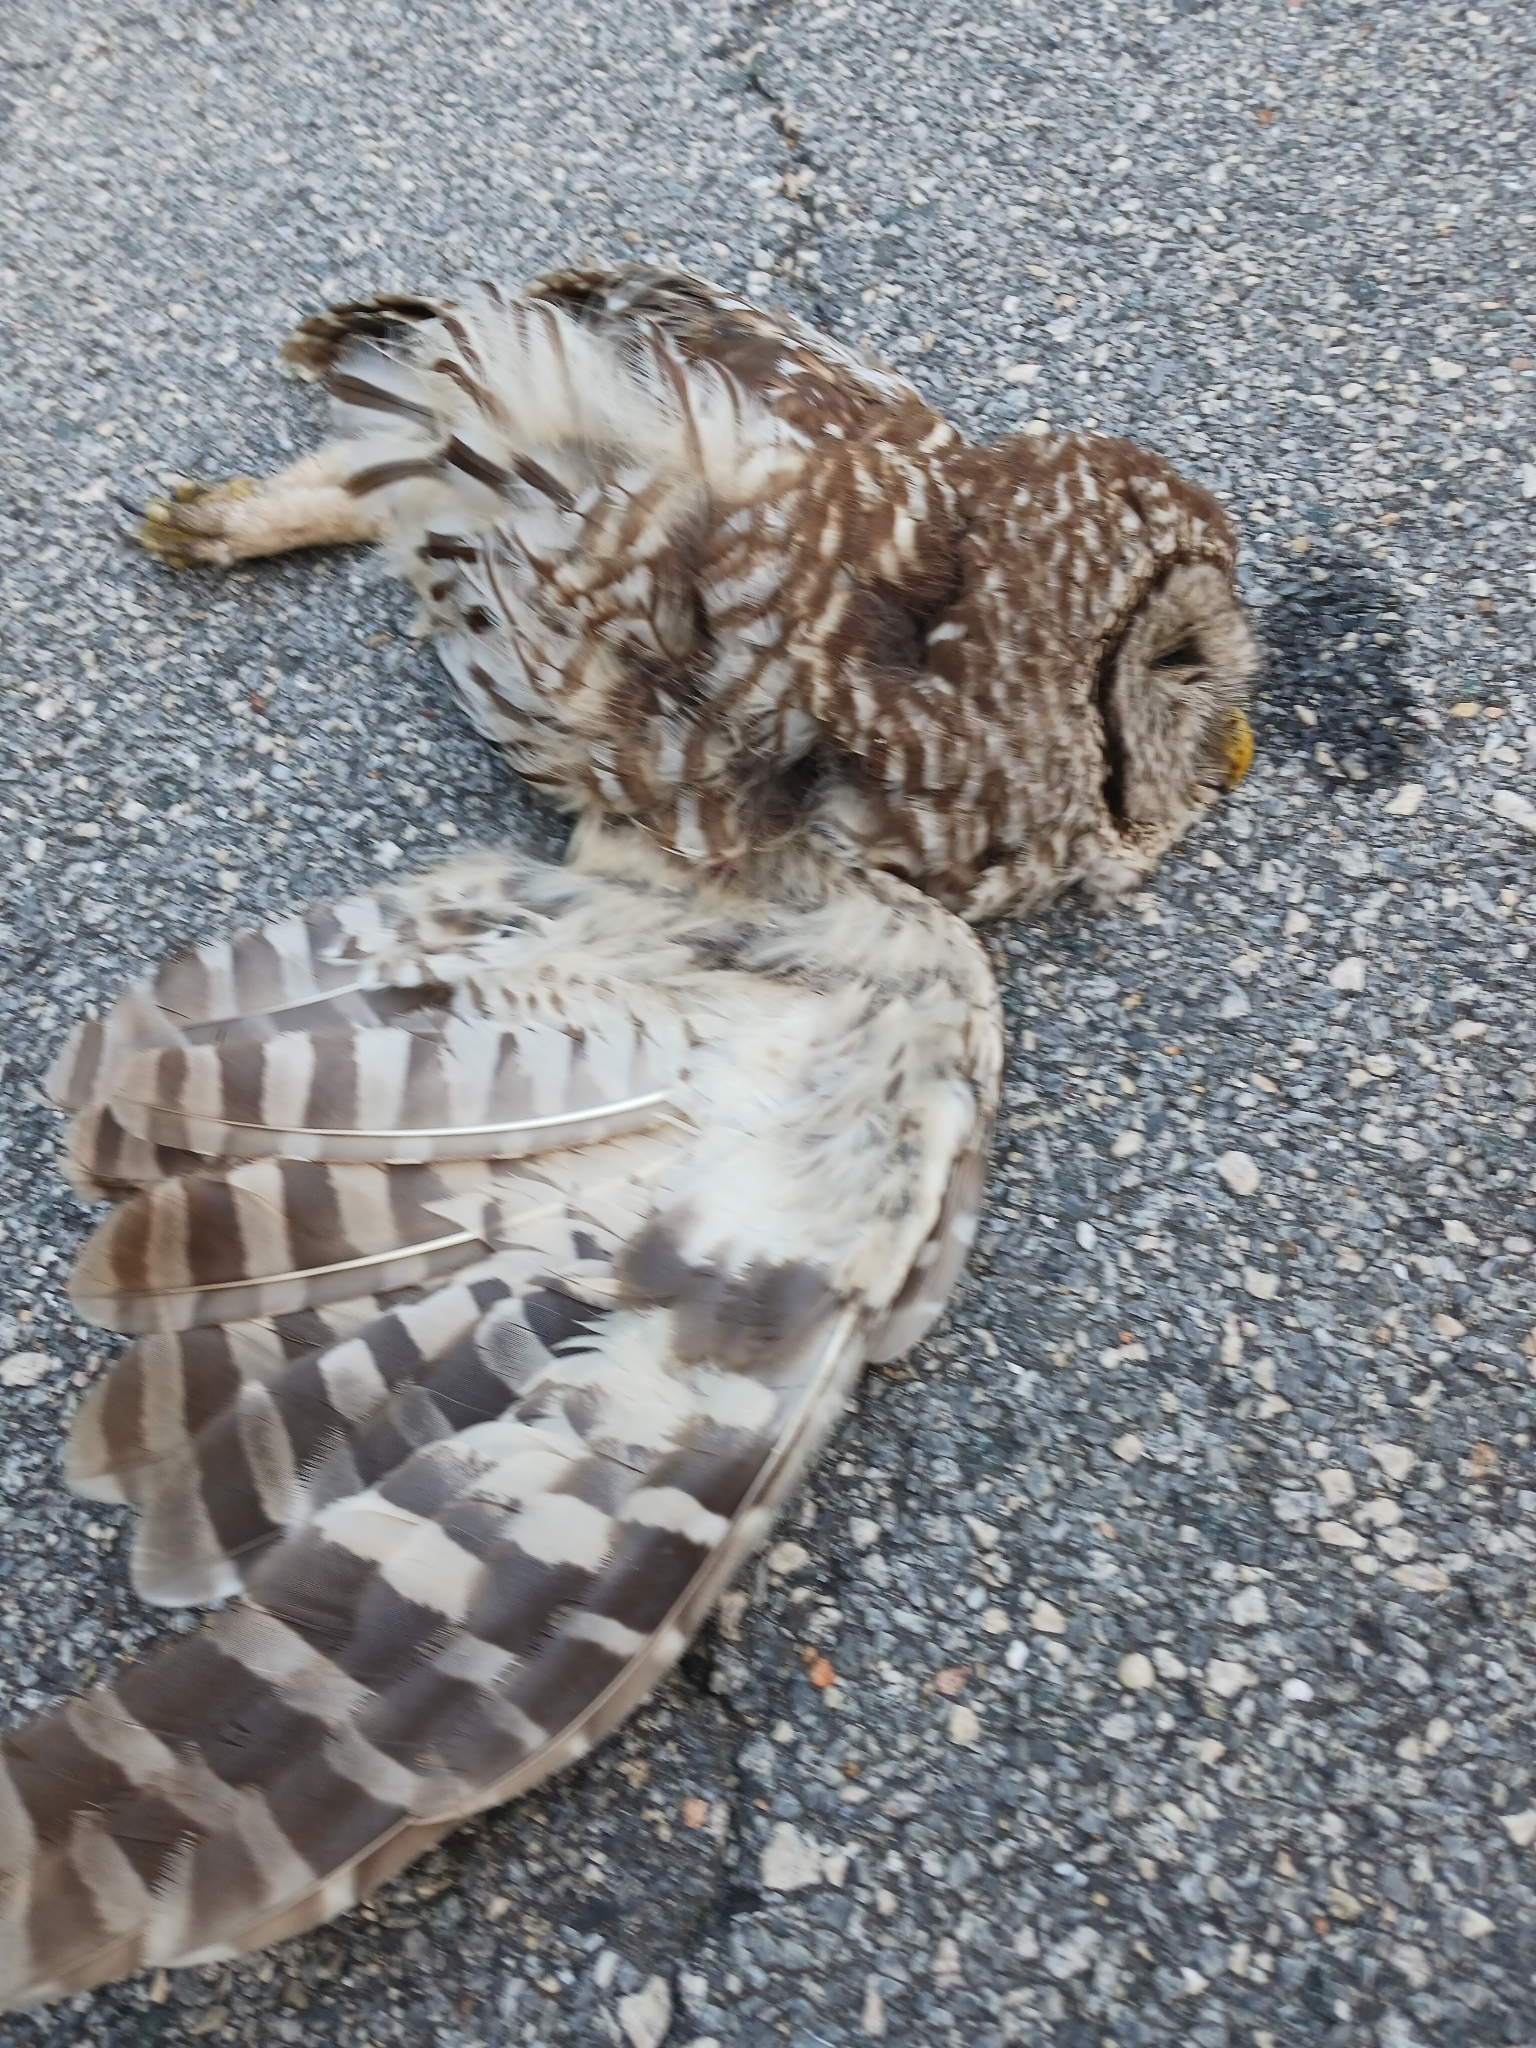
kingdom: Animalia
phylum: Chordata
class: Aves
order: Strigiformes
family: Strigidae
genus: Strix
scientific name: Strix varia
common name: Barred owl
